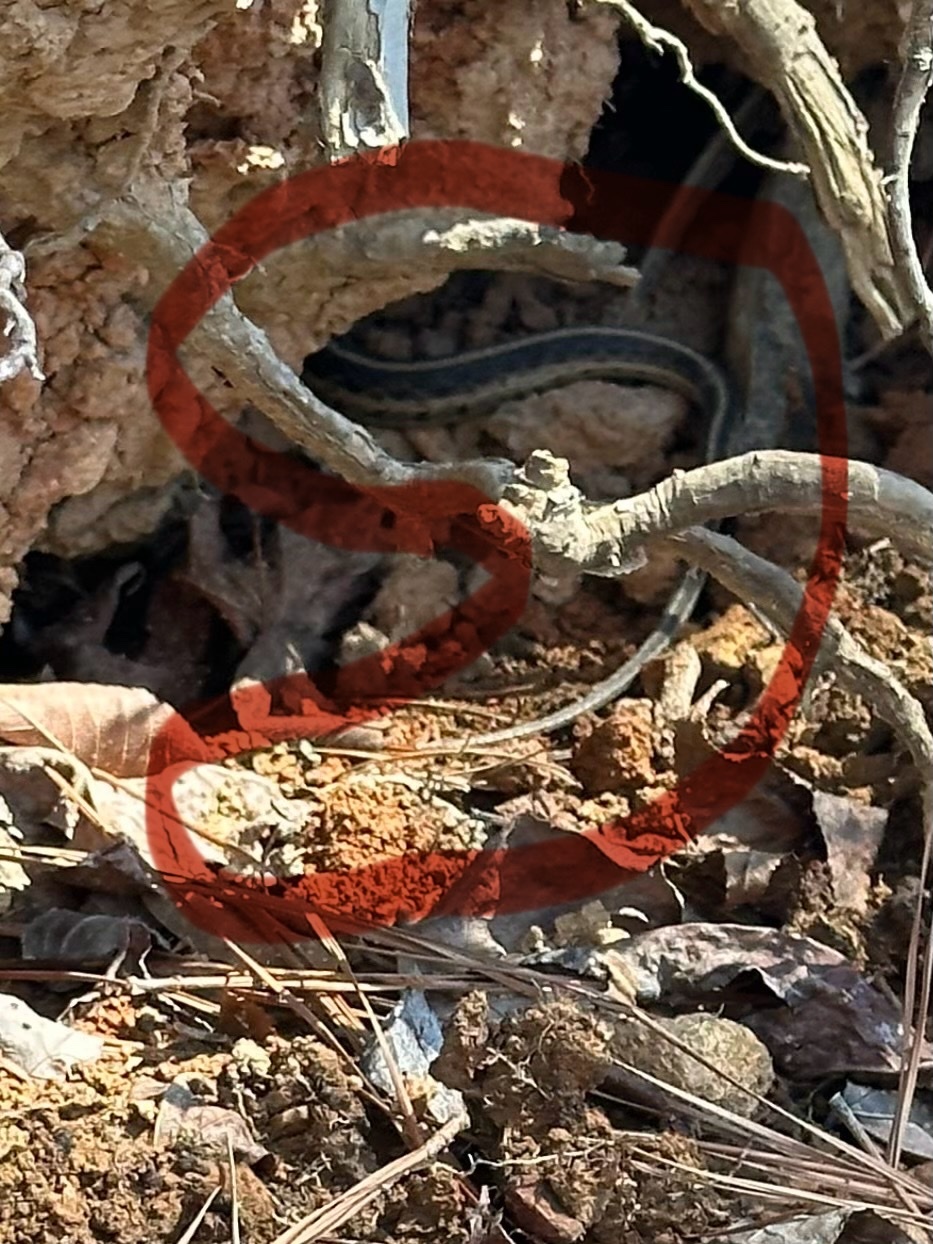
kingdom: Animalia
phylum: Chordata
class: Squamata
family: Colubridae
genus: Thamnophis
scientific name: Thamnophis sirtalis
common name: Common garter snake
